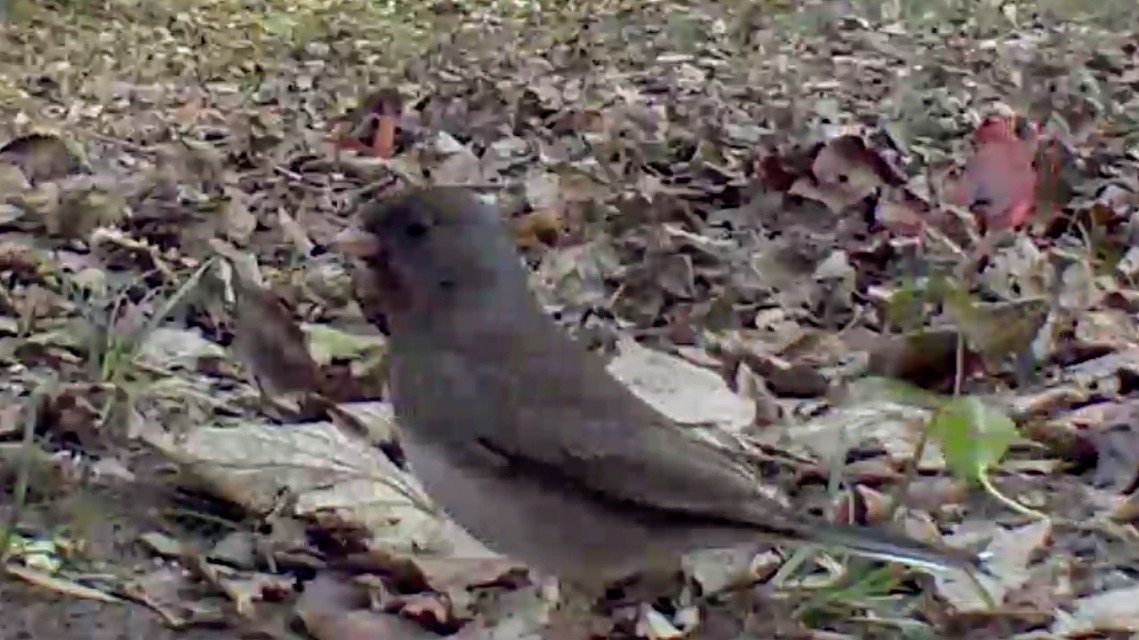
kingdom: Animalia
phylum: Chordata
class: Aves
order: Passeriformes
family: Passerellidae
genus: Junco
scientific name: Junco hyemalis
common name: Dark-eyed junco
